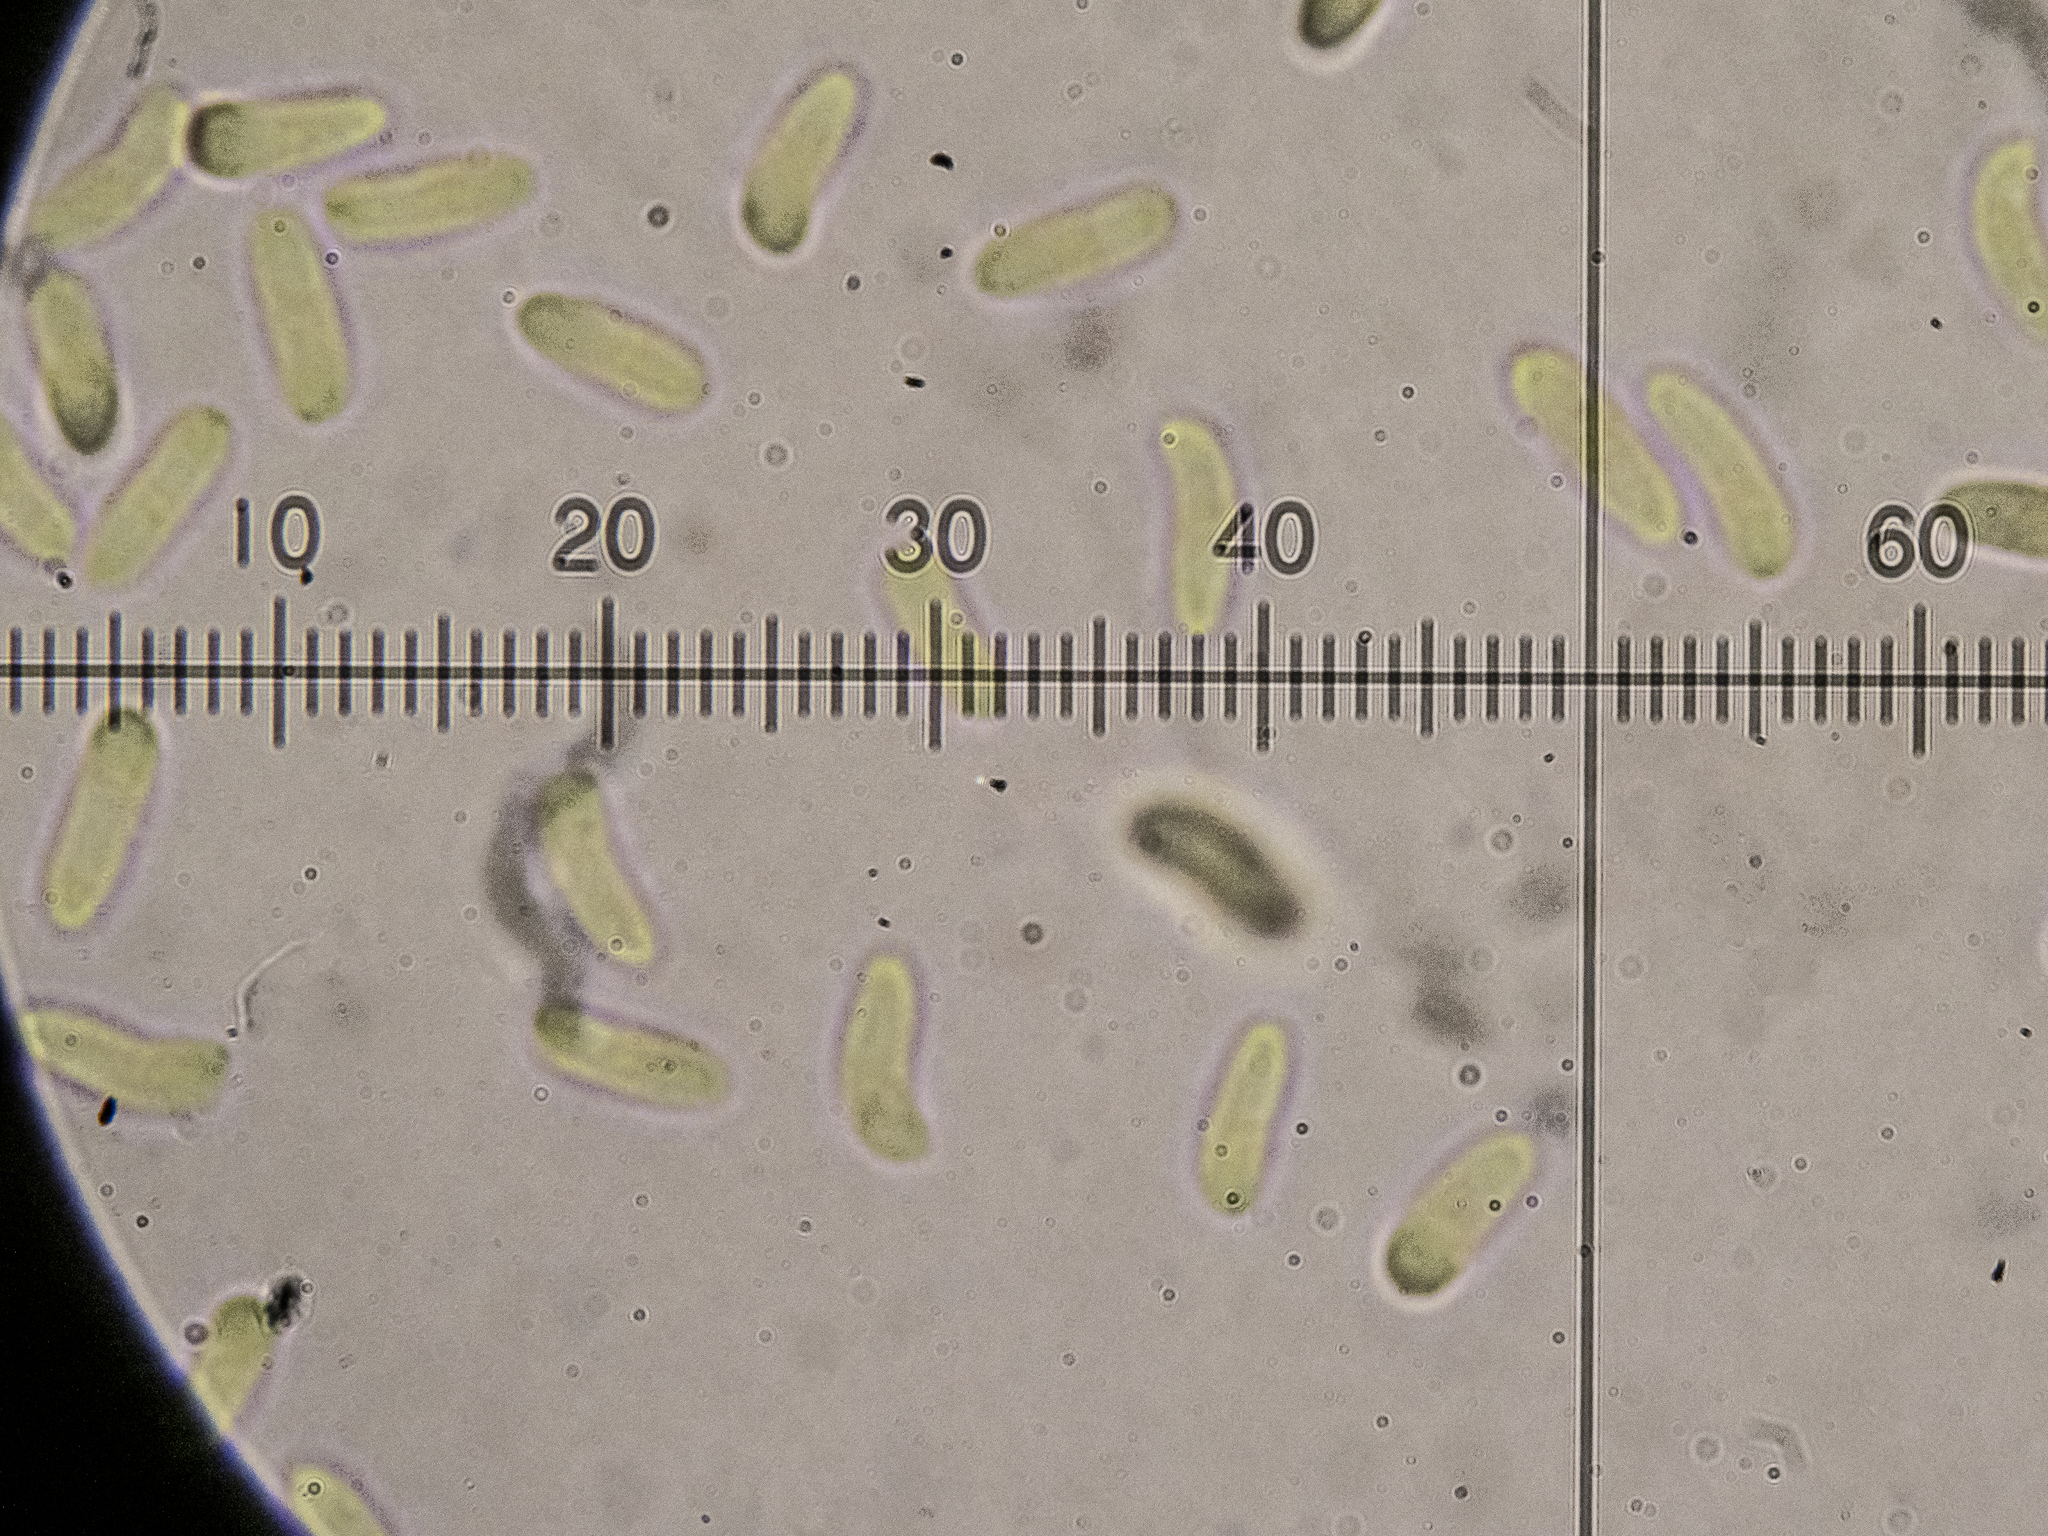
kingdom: Fungi
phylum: Basidiomycota
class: Agaricomycetes
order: Polyporales
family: Gelatoporiaceae
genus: Cinereomyces
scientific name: Cinereomyces lindbladii
